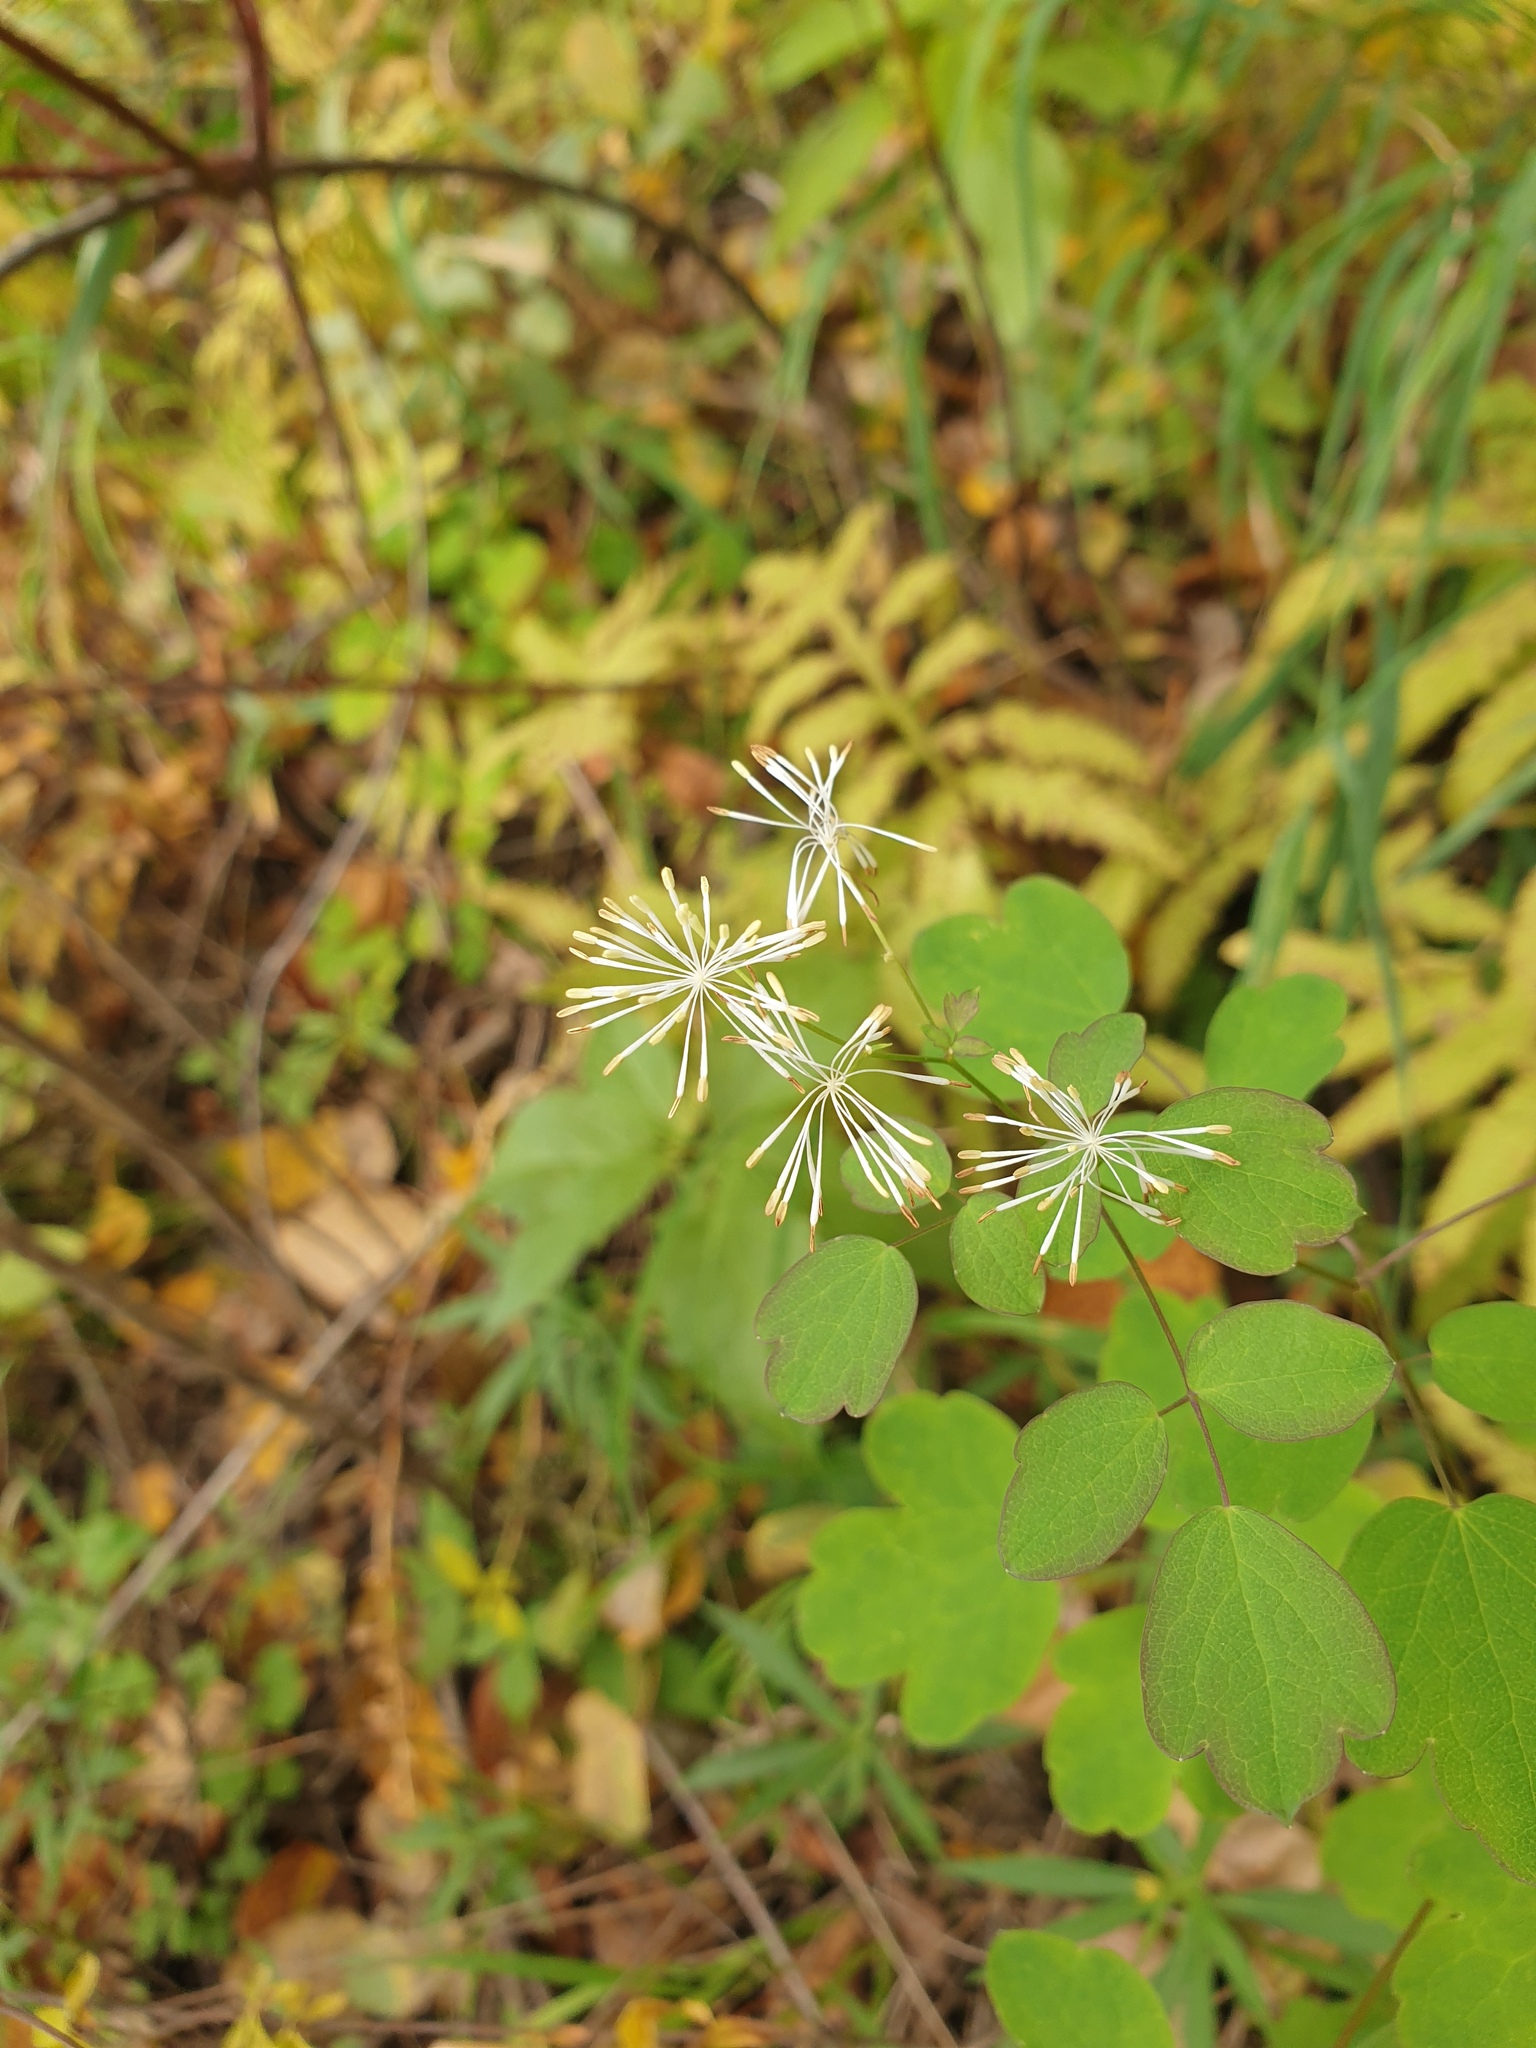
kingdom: Plantae
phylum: Tracheophyta
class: Magnoliopsida
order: Ranunculales
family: Ranunculaceae
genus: Thalictrum
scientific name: Thalictrum pubescens
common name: King-of-the-meadow
